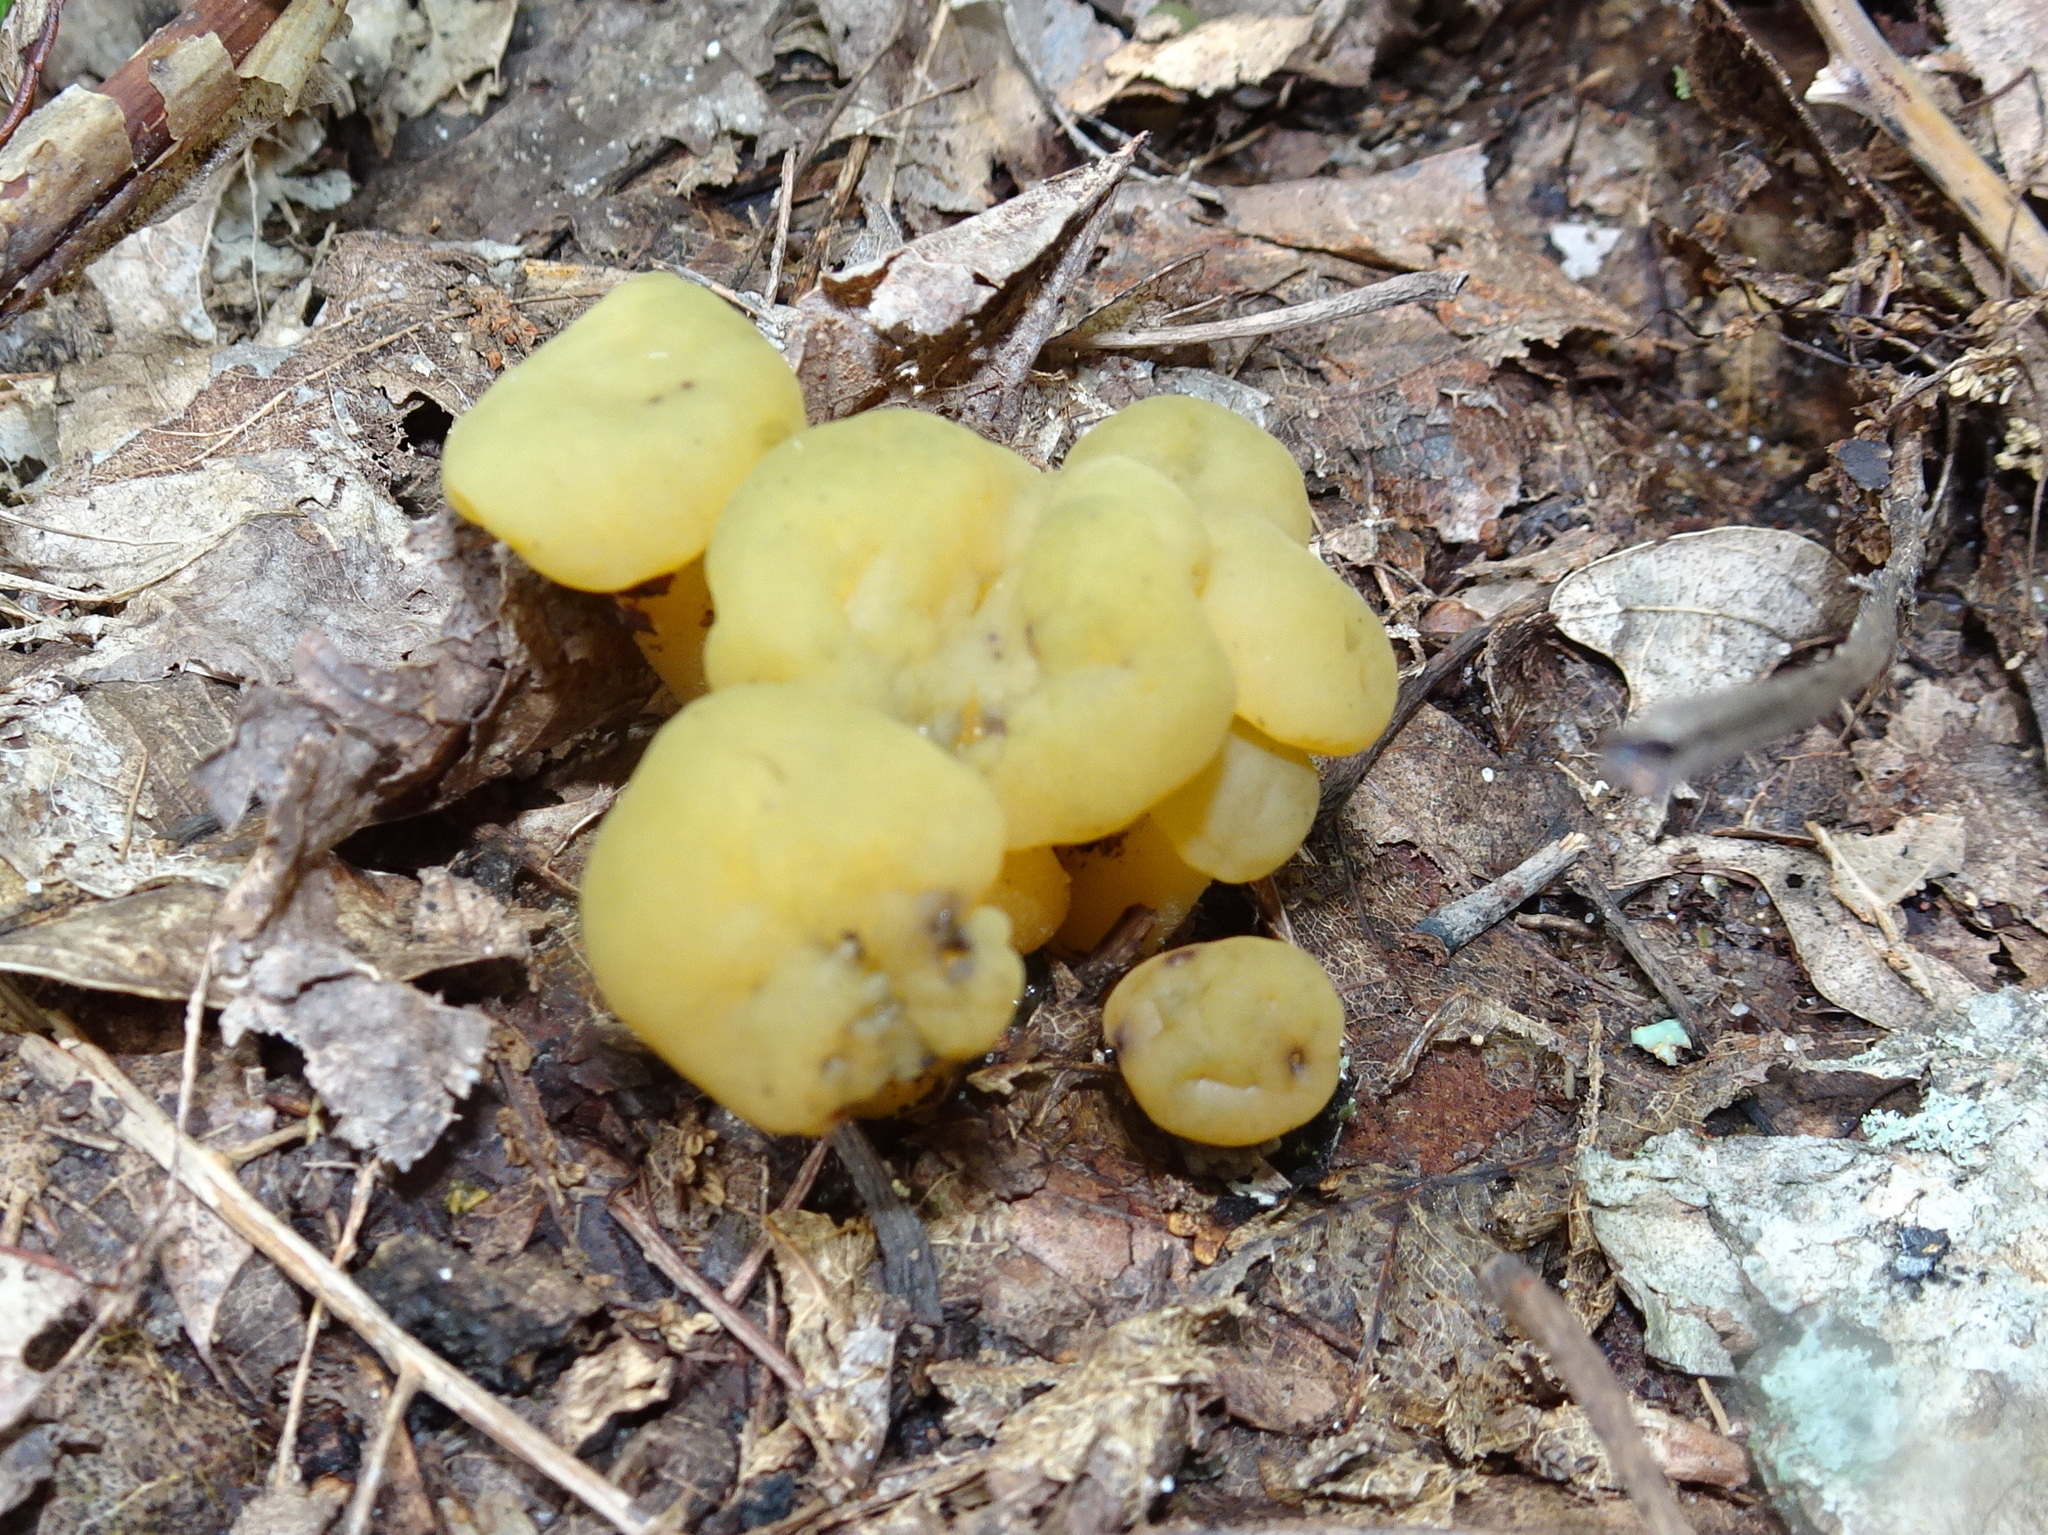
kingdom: Fungi
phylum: Ascomycota
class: Leotiomycetes
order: Leotiales
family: Leotiaceae
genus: Leotia
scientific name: Leotia lubrica
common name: Jellybaby
